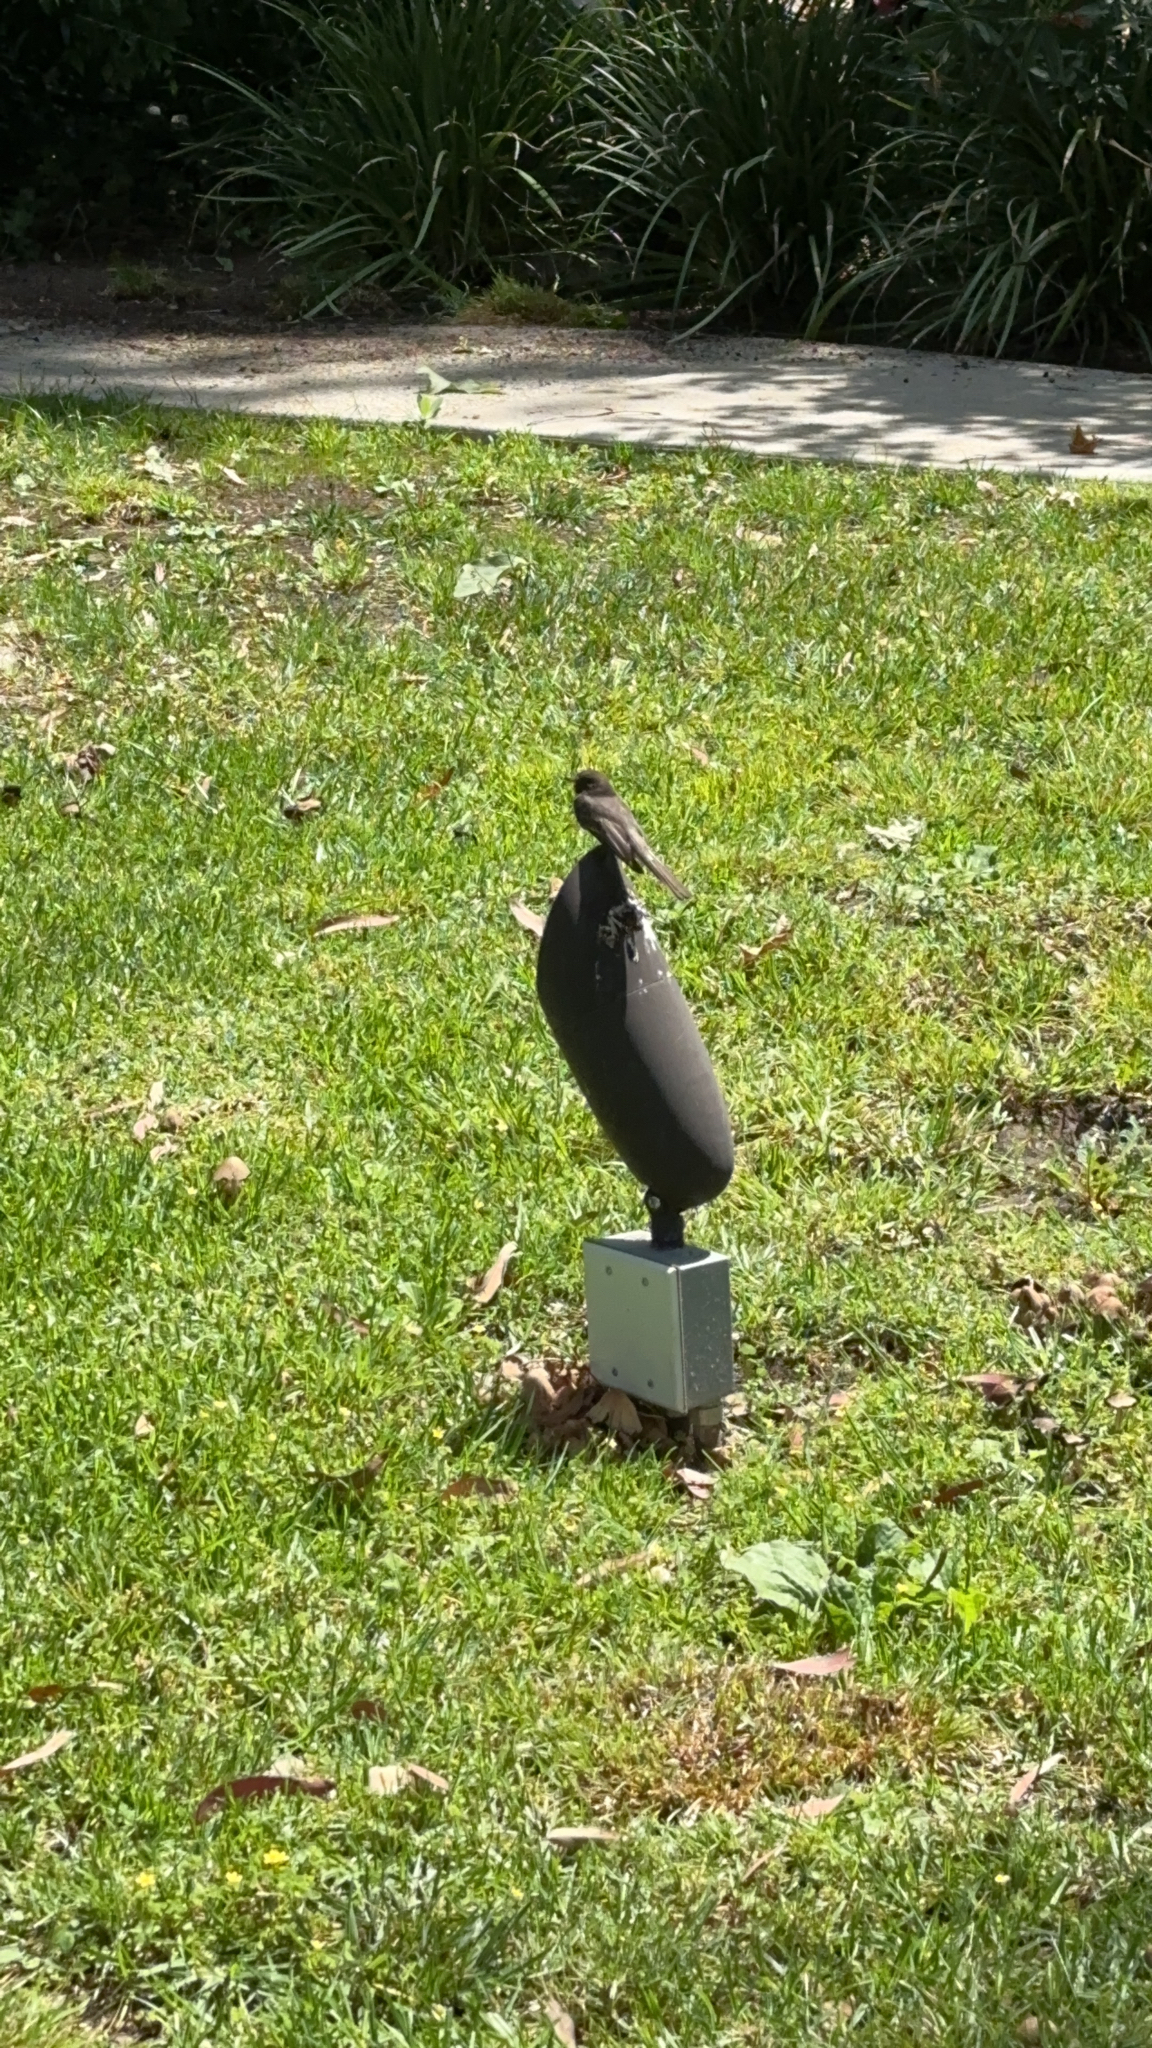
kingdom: Animalia
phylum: Chordata
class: Aves
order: Passeriformes
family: Tyrannidae
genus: Sayornis
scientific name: Sayornis nigricans
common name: Black phoebe
